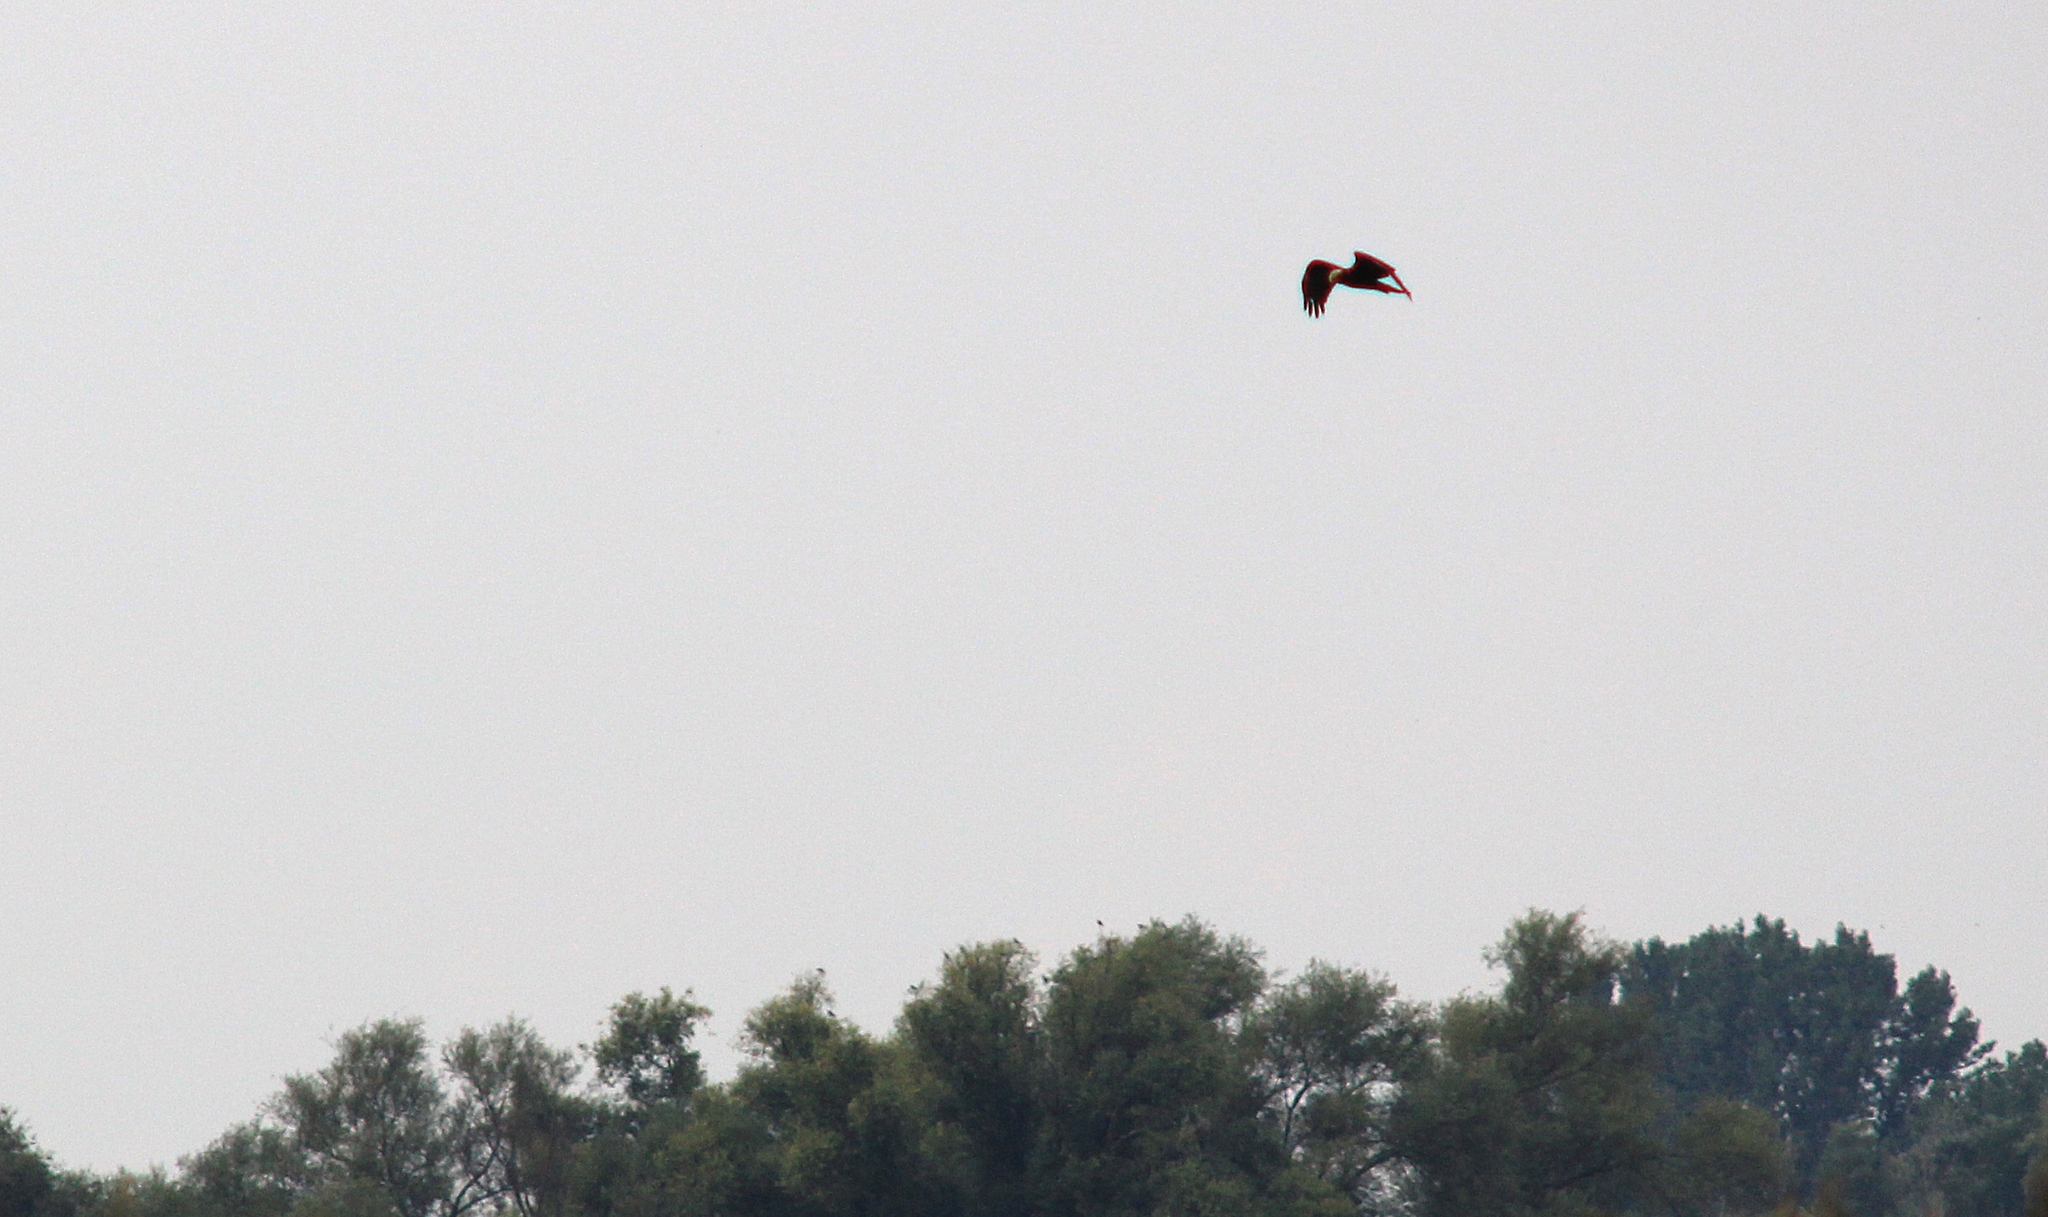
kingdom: Animalia
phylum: Chordata
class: Aves
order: Accipitriformes
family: Accipitridae
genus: Circus
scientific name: Circus aeruginosus
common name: Western marsh harrier
